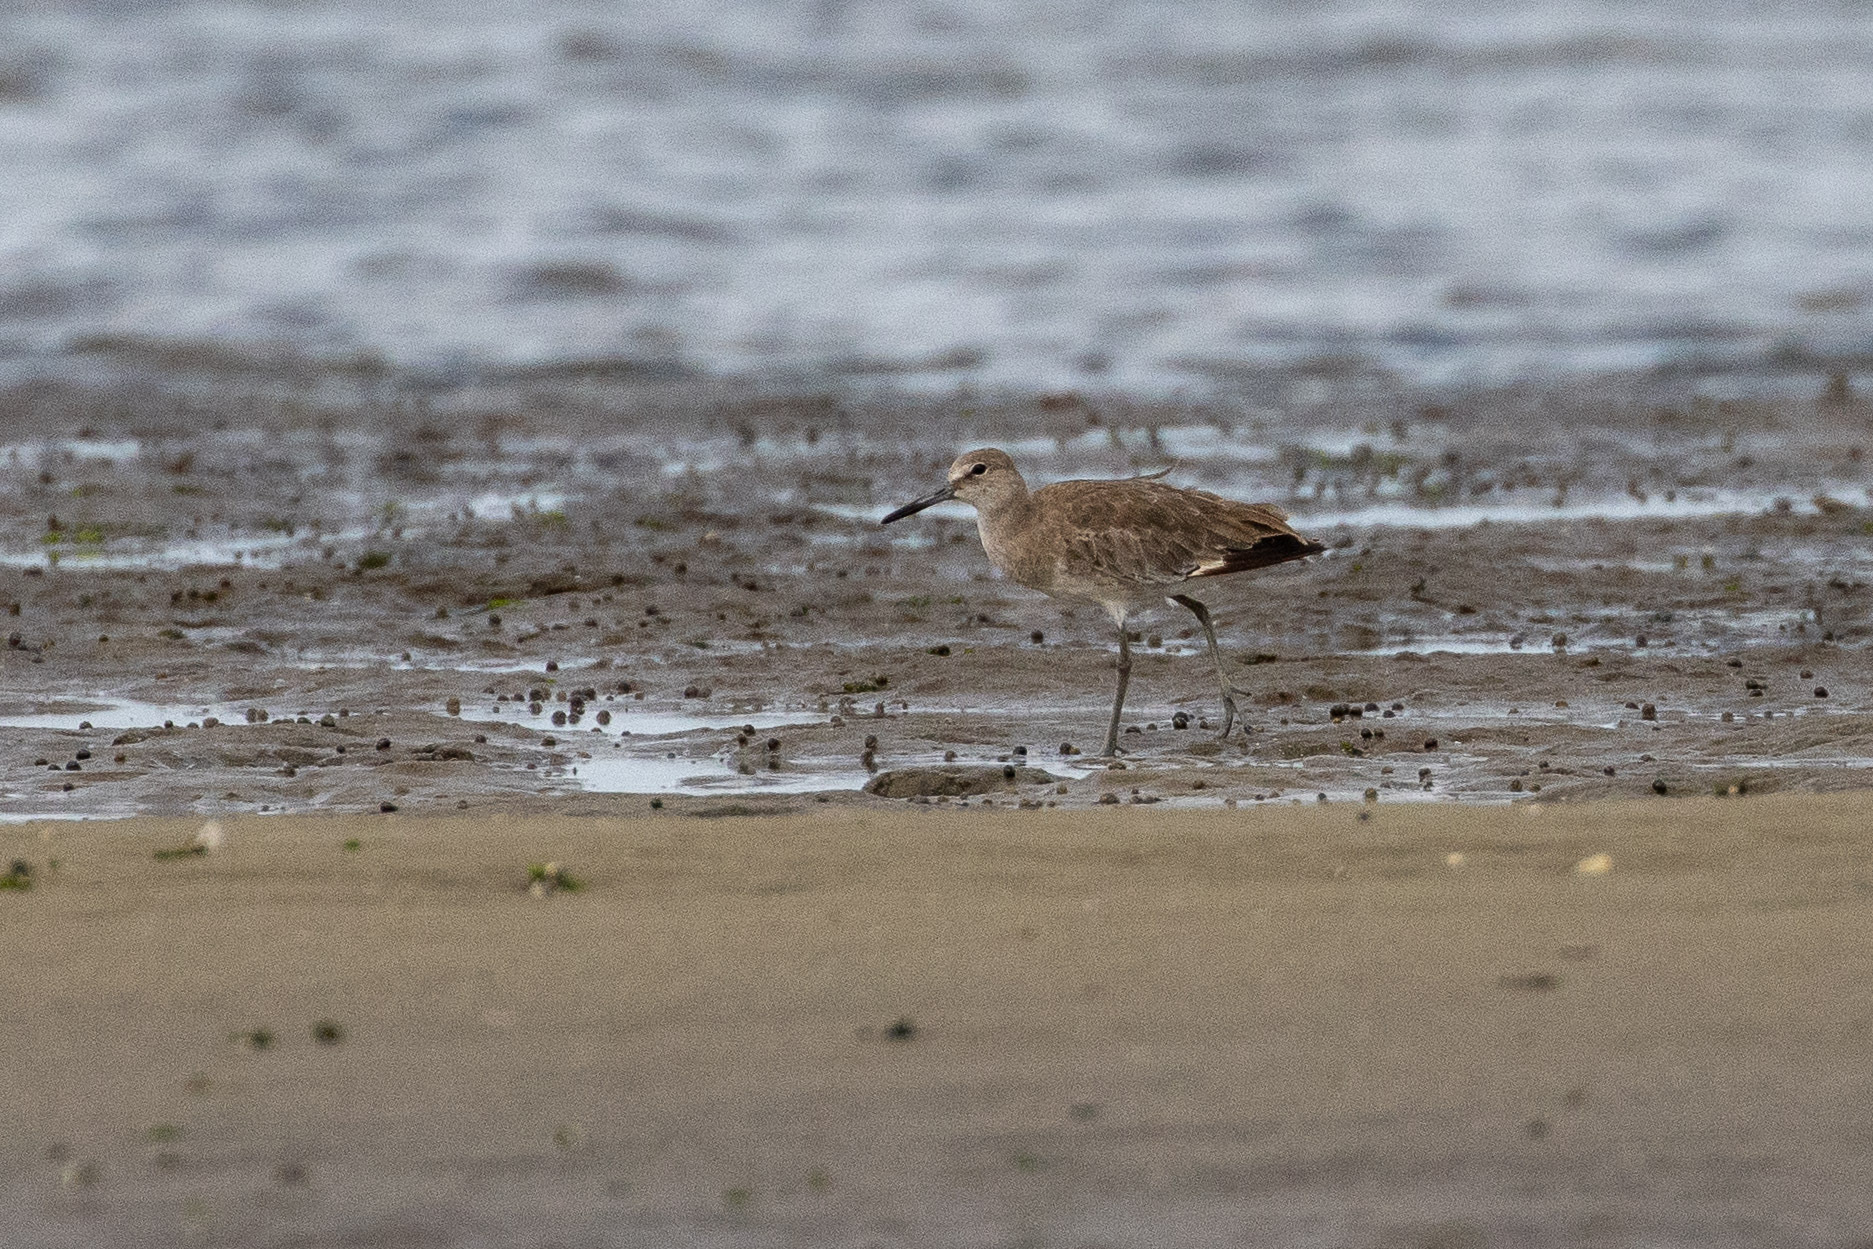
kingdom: Animalia
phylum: Chordata
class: Aves
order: Charadriiformes
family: Scolopacidae
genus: Tringa
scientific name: Tringa semipalmata
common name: Willet
